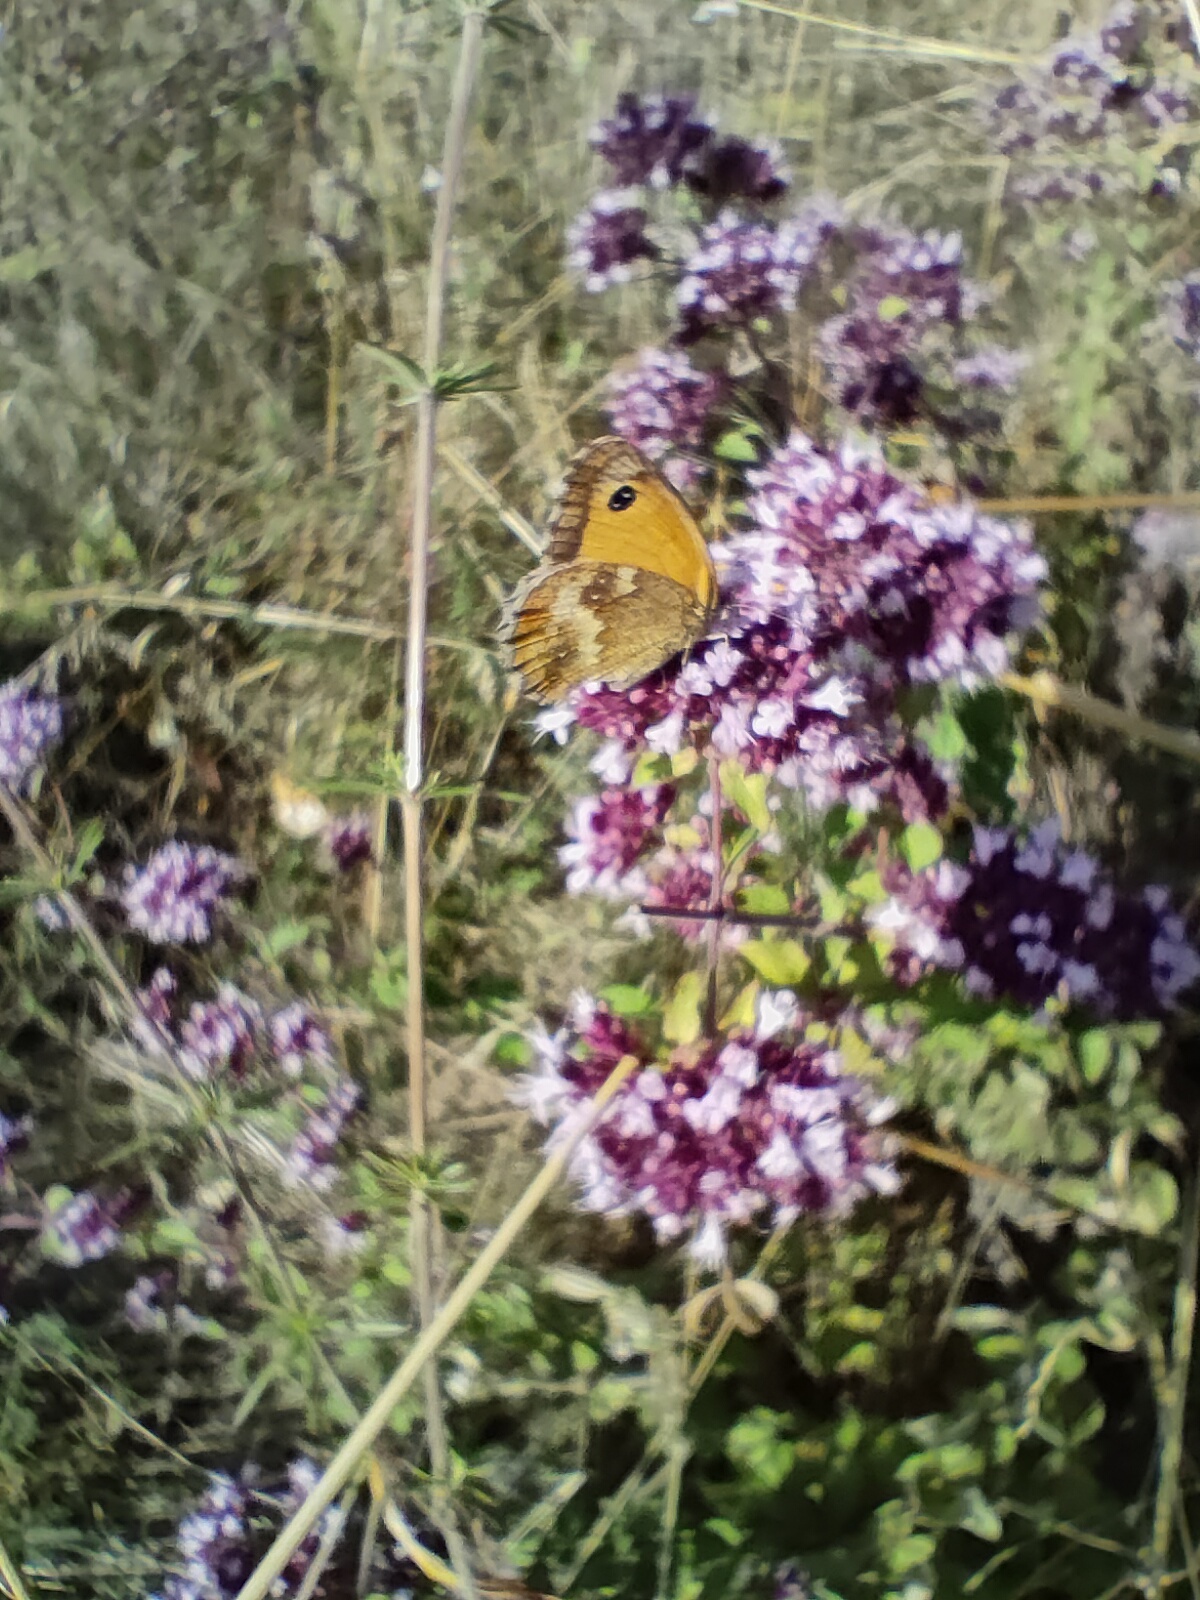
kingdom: Animalia
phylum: Arthropoda
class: Insecta
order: Lepidoptera
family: Nymphalidae
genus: Pyronia
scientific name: Pyronia tithonus
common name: Gatekeeper
